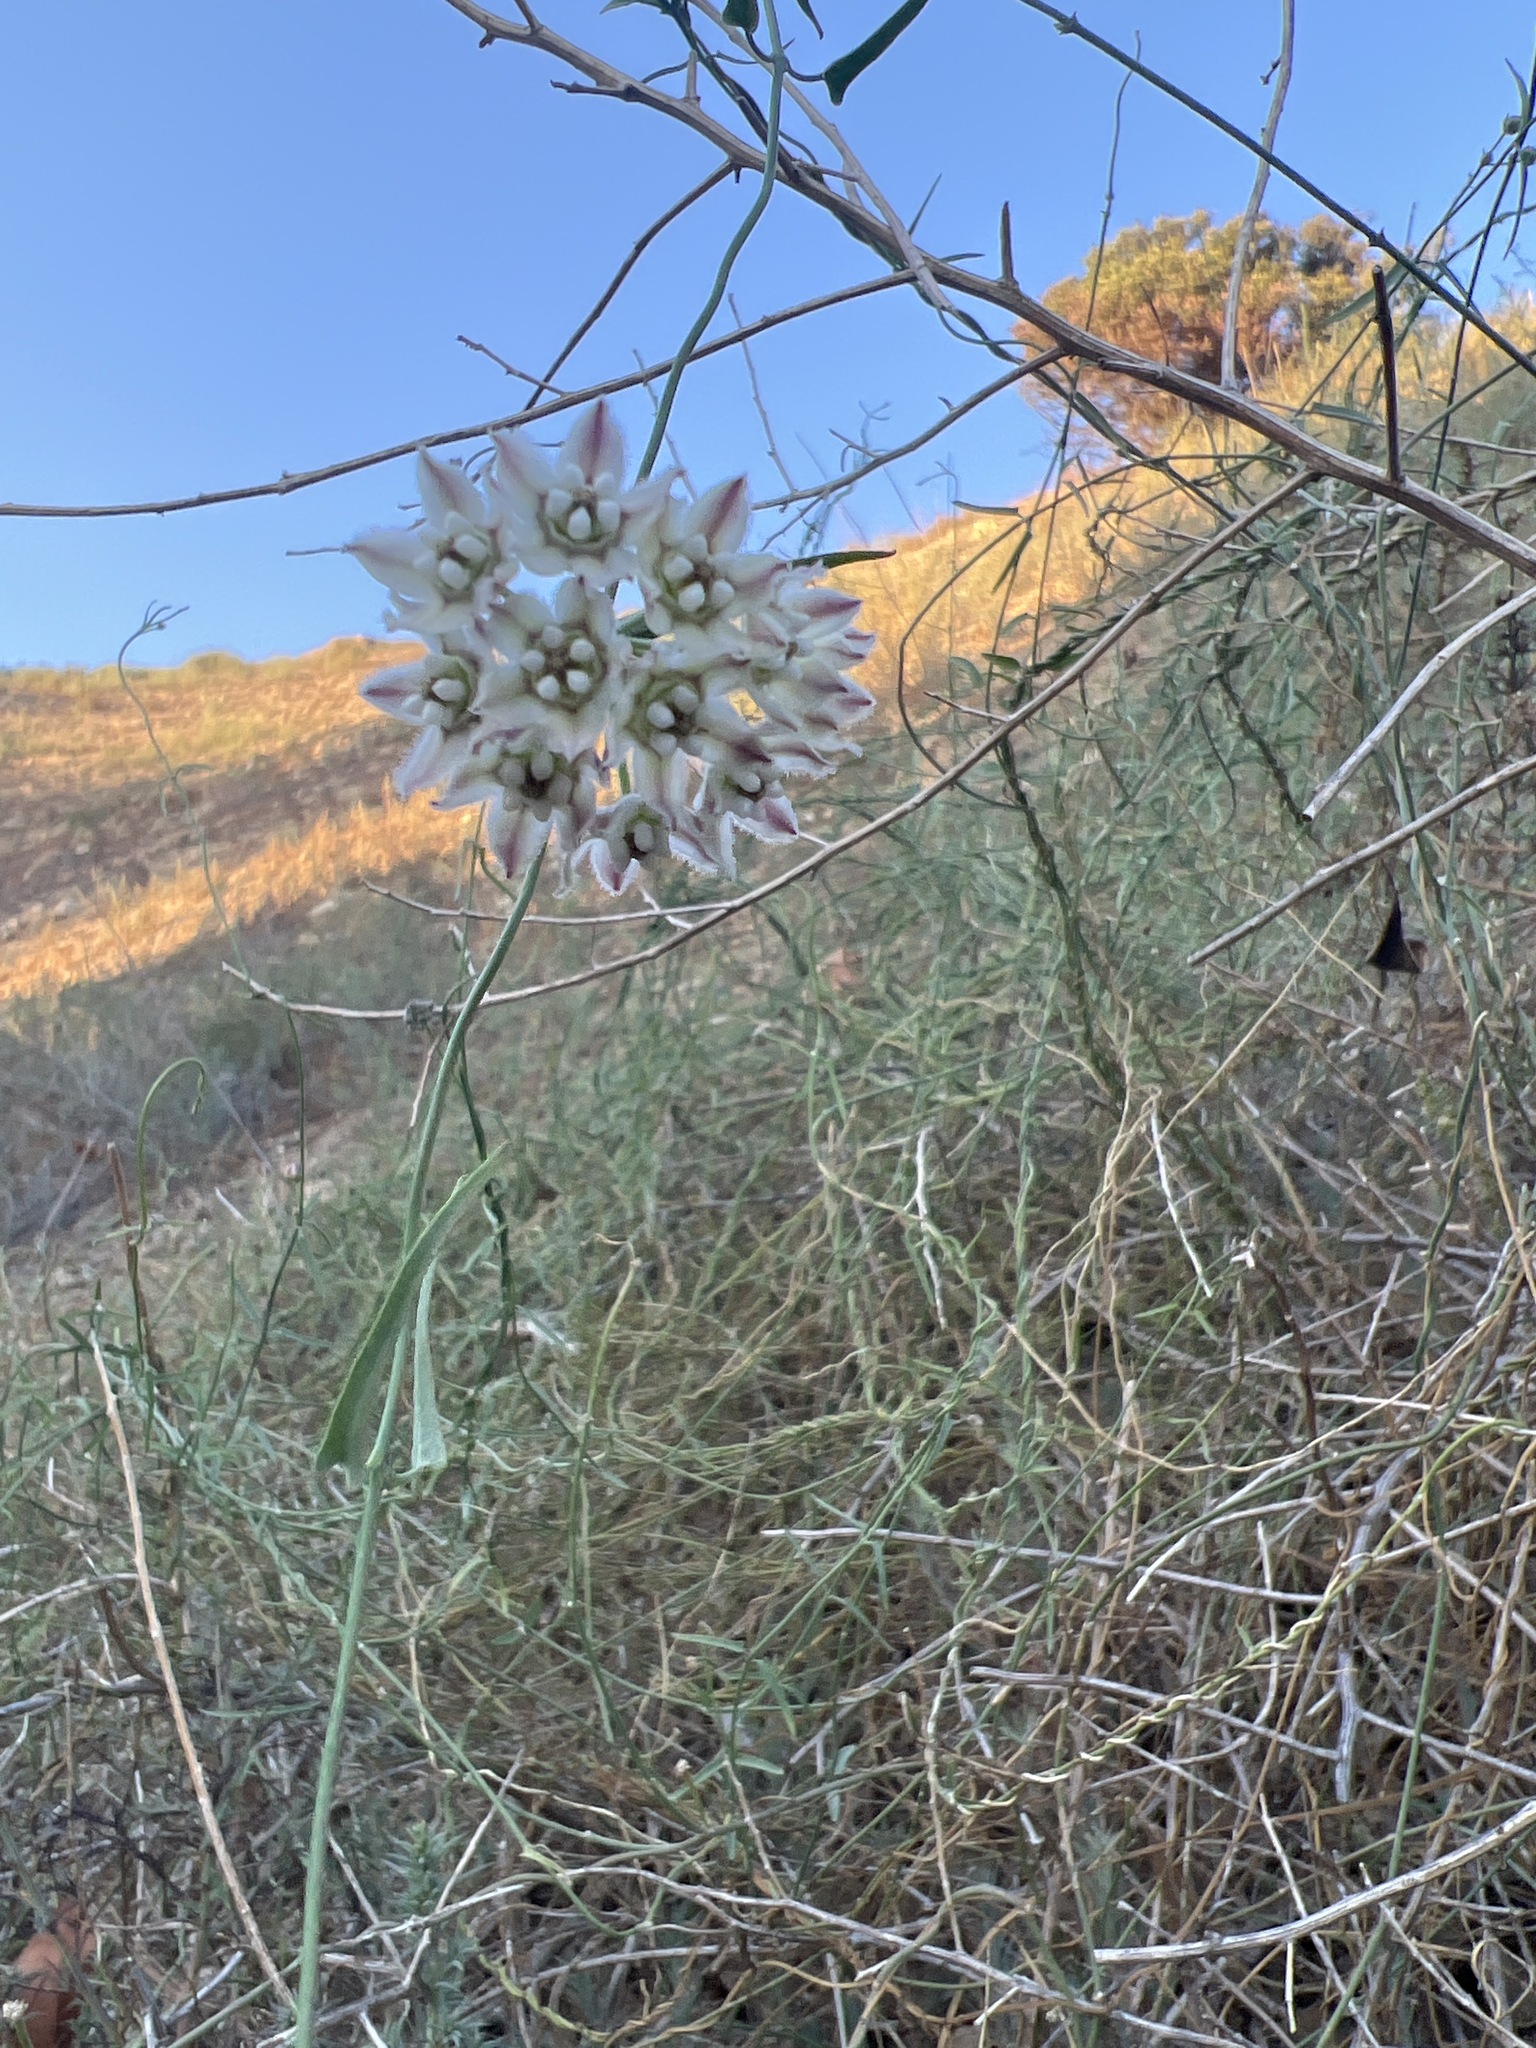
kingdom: Plantae
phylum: Tracheophyta
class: Magnoliopsida
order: Gentianales
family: Apocynaceae
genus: Funastrum
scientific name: Funastrum heterophyllum
